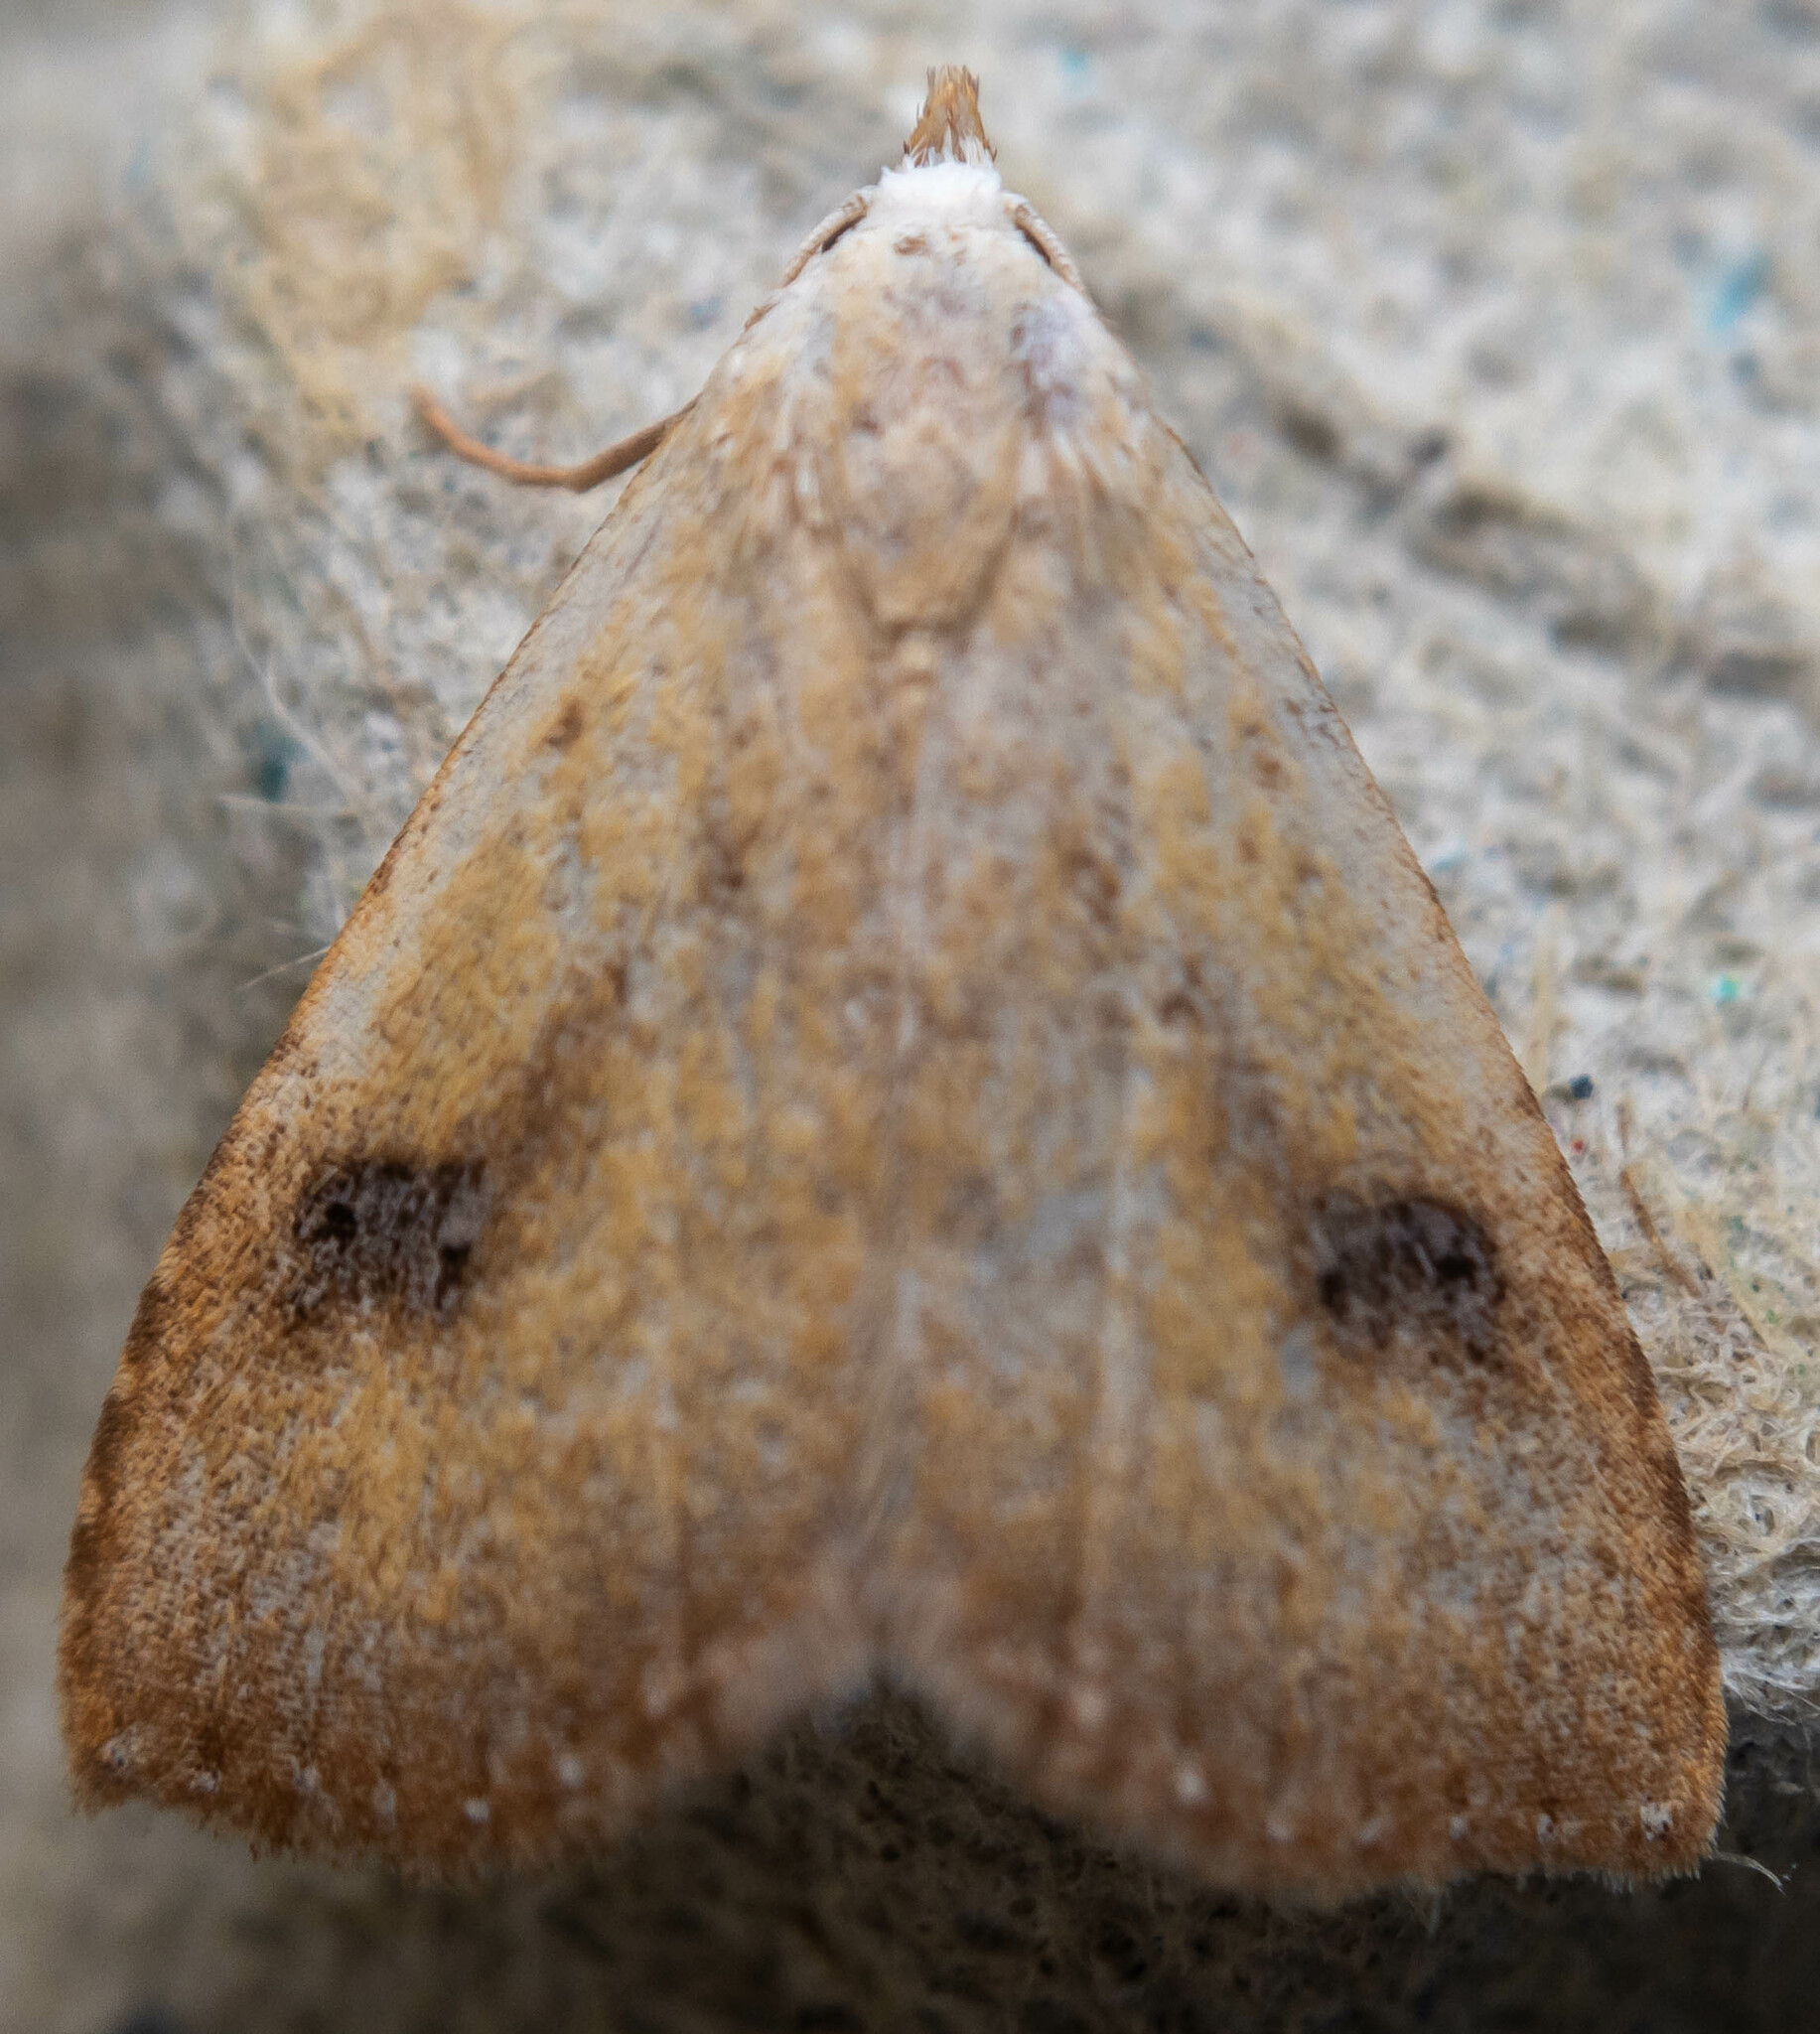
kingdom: Animalia
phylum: Arthropoda
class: Insecta
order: Lepidoptera
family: Erebidae
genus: Rivula
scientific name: Rivula sericealis
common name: Straw dot
